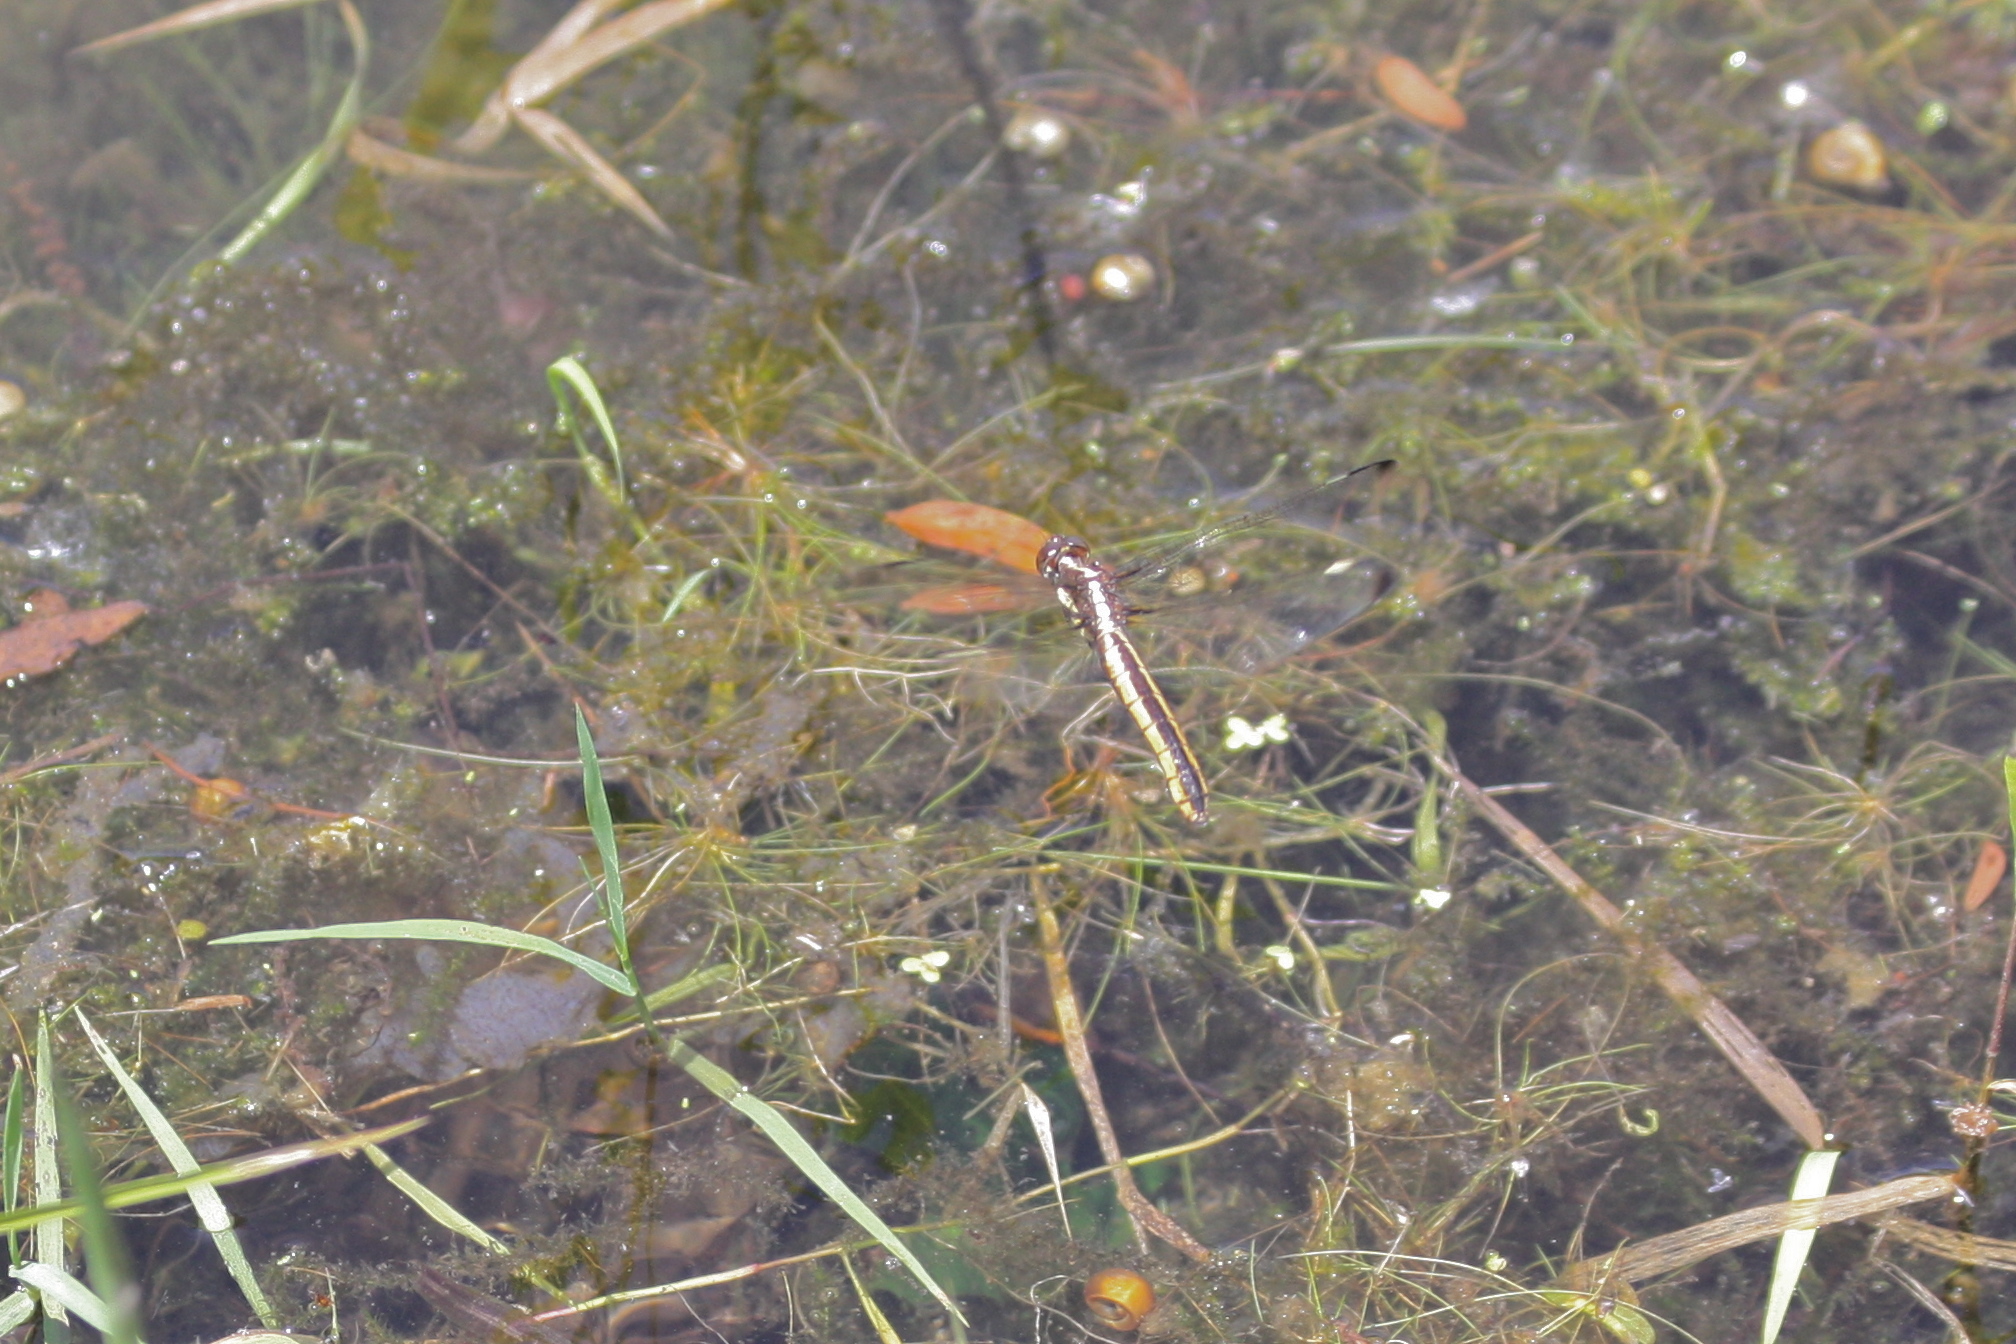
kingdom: Animalia
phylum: Arthropoda
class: Insecta
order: Odonata
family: Libellulidae
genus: Libellula
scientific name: Libellula cyanea
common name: Spangled skimmer
